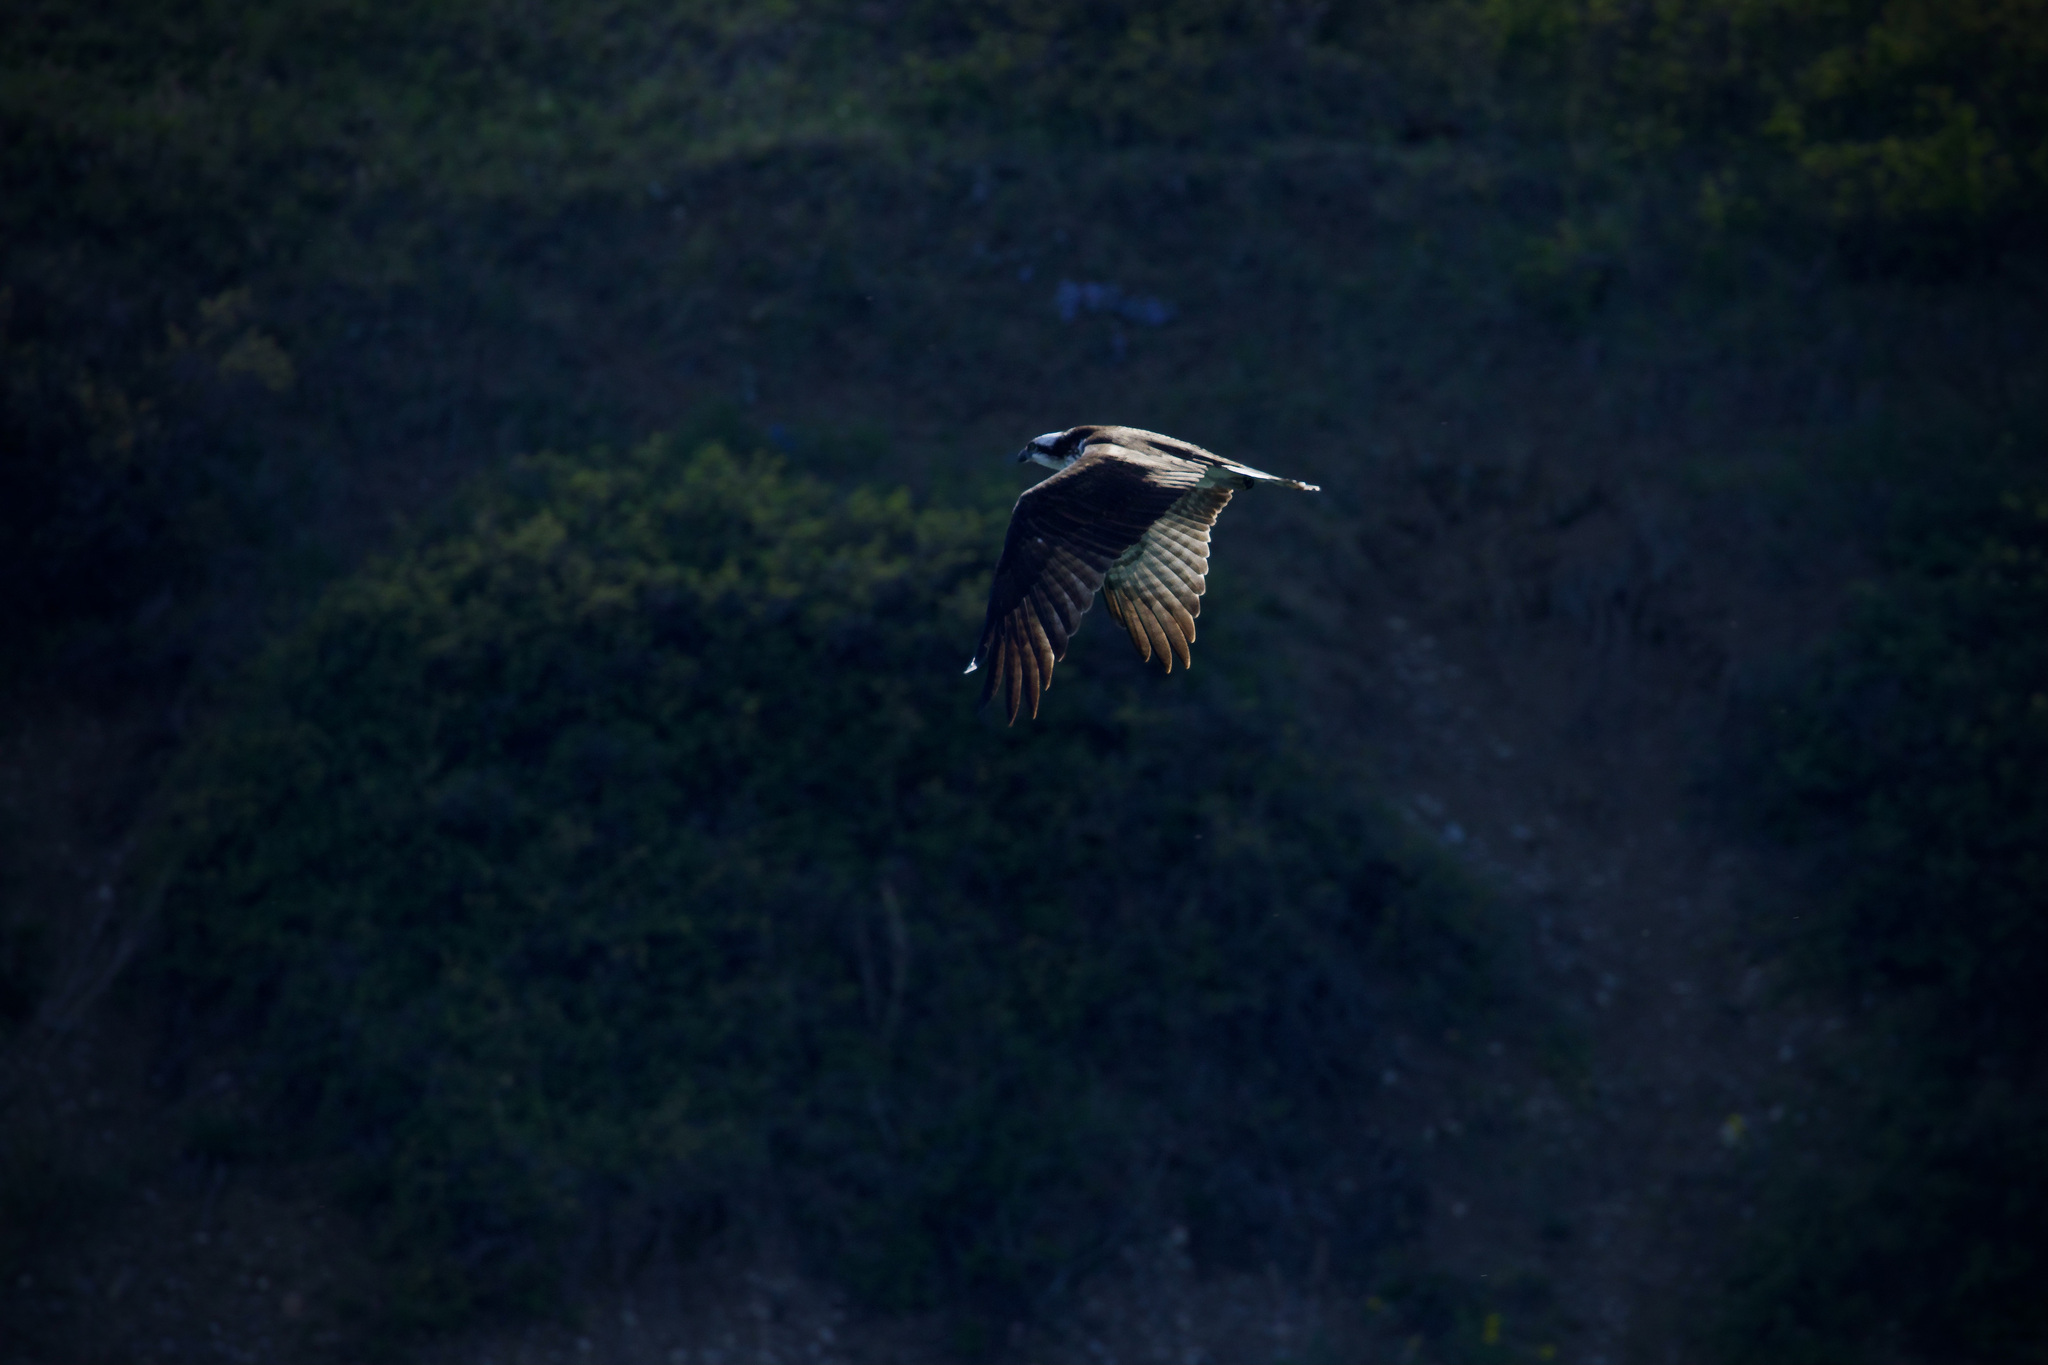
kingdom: Animalia
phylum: Chordata
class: Aves
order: Accipitriformes
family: Pandionidae
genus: Pandion
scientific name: Pandion haliaetus
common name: Osprey
